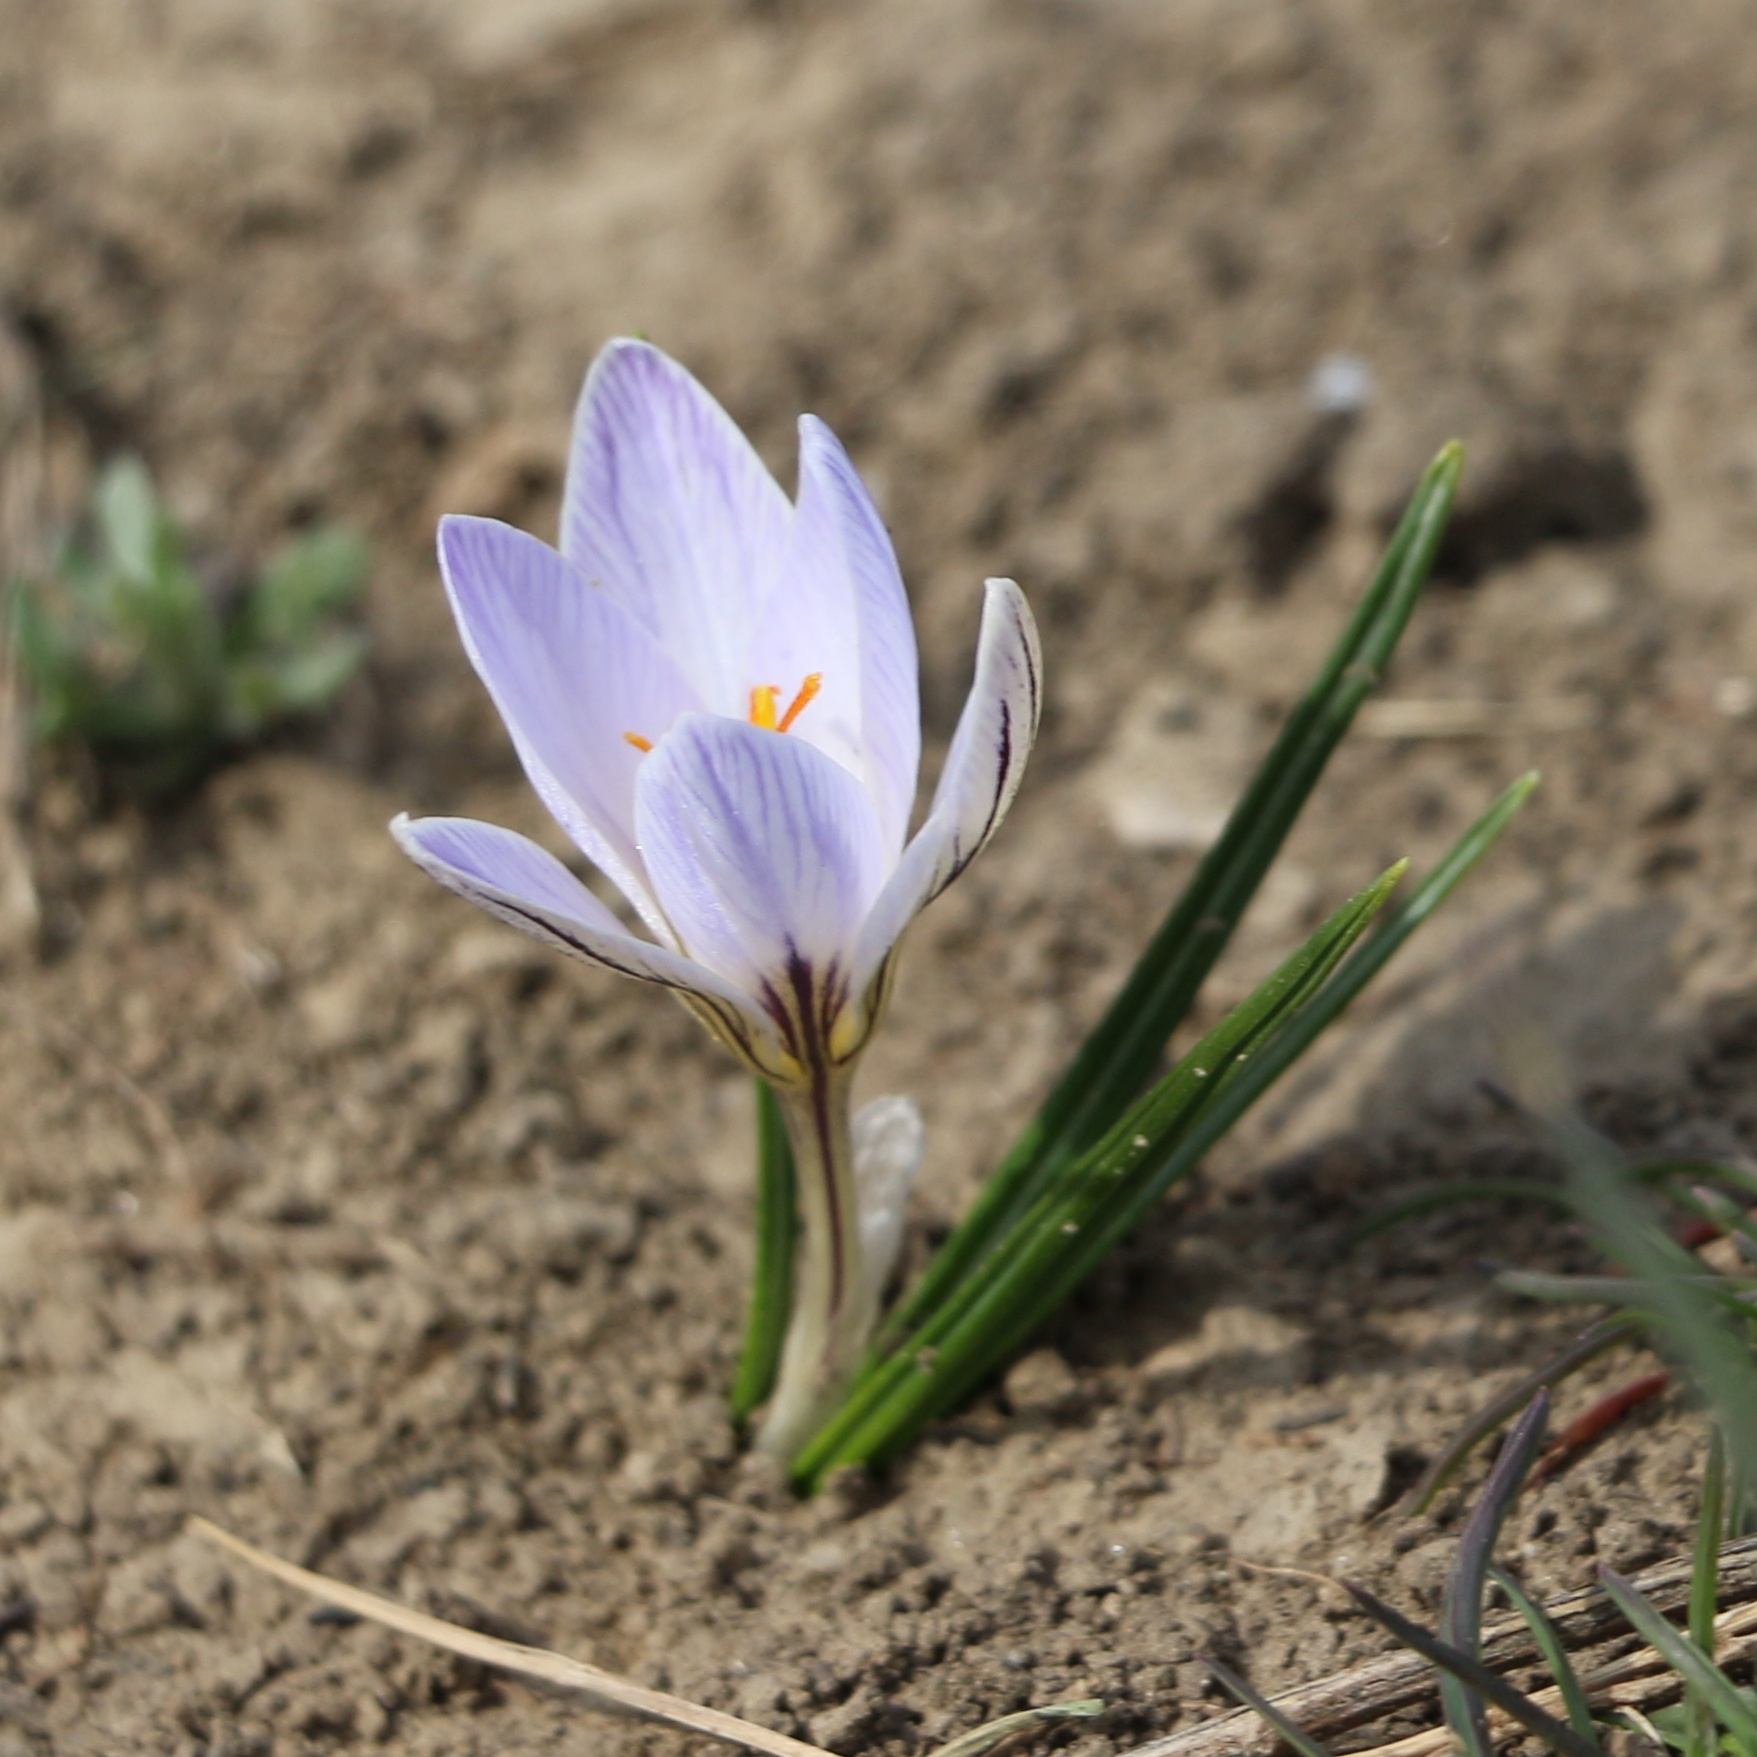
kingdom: Plantae
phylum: Tracheophyta
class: Liliopsida
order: Asparagales
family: Iridaceae
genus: Crocus
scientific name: Crocus reticulatus
